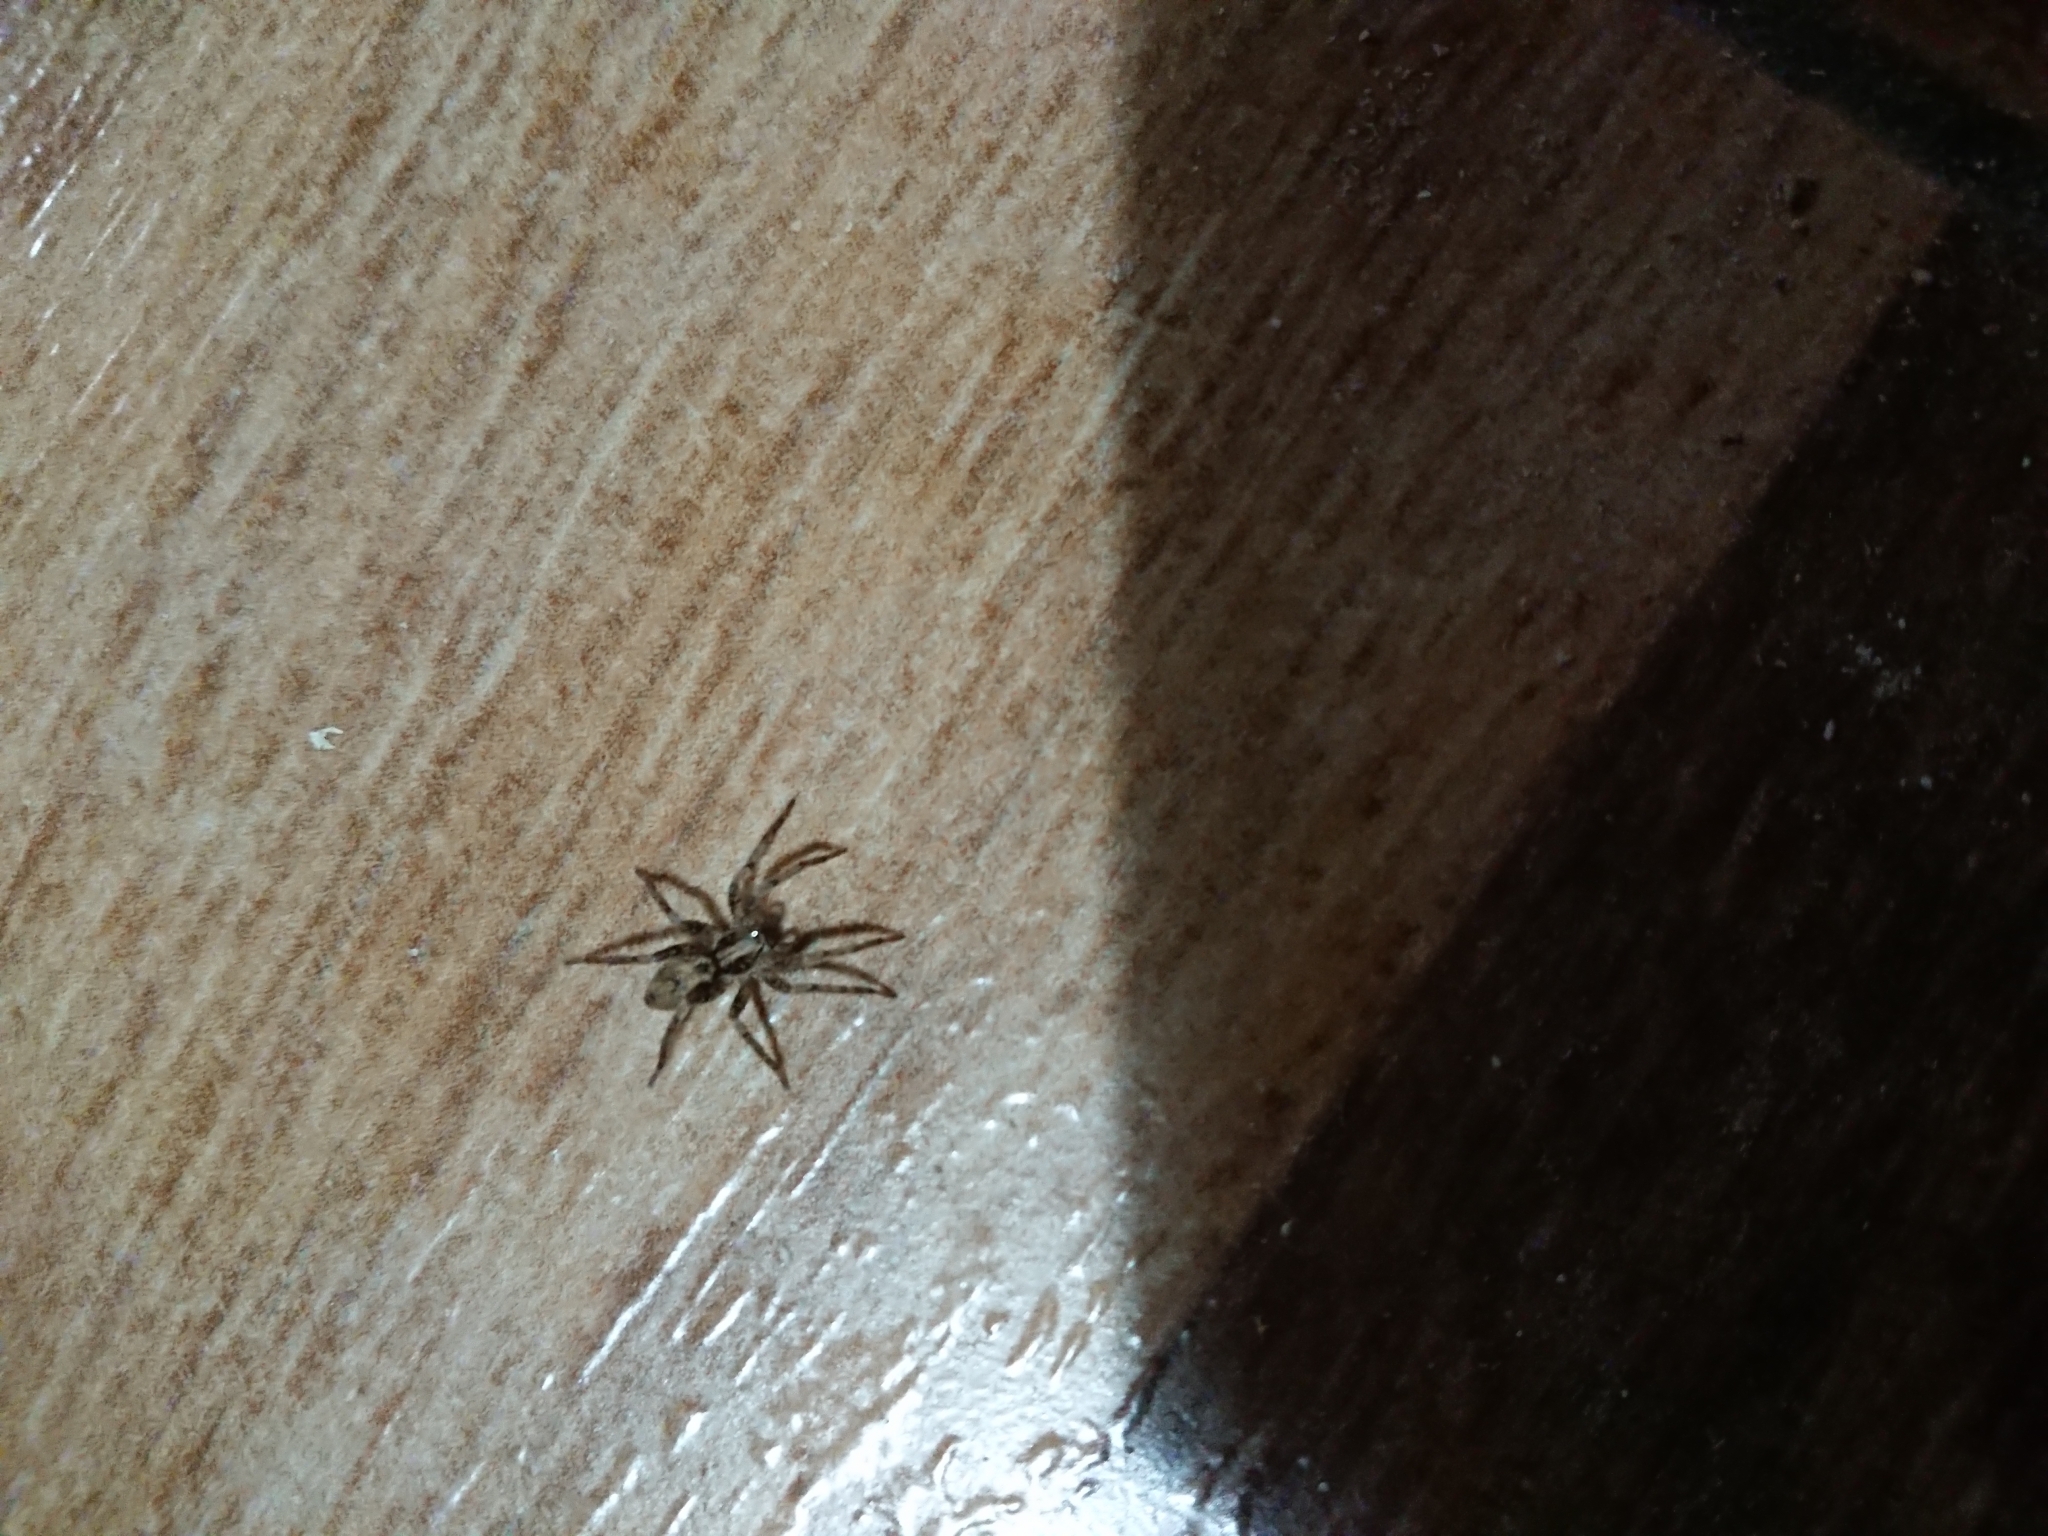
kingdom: Animalia
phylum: Arthropoda
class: Arachnida
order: Araneae
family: Anyphaenidae
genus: Tomopisthes
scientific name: Tomopisthes varius
